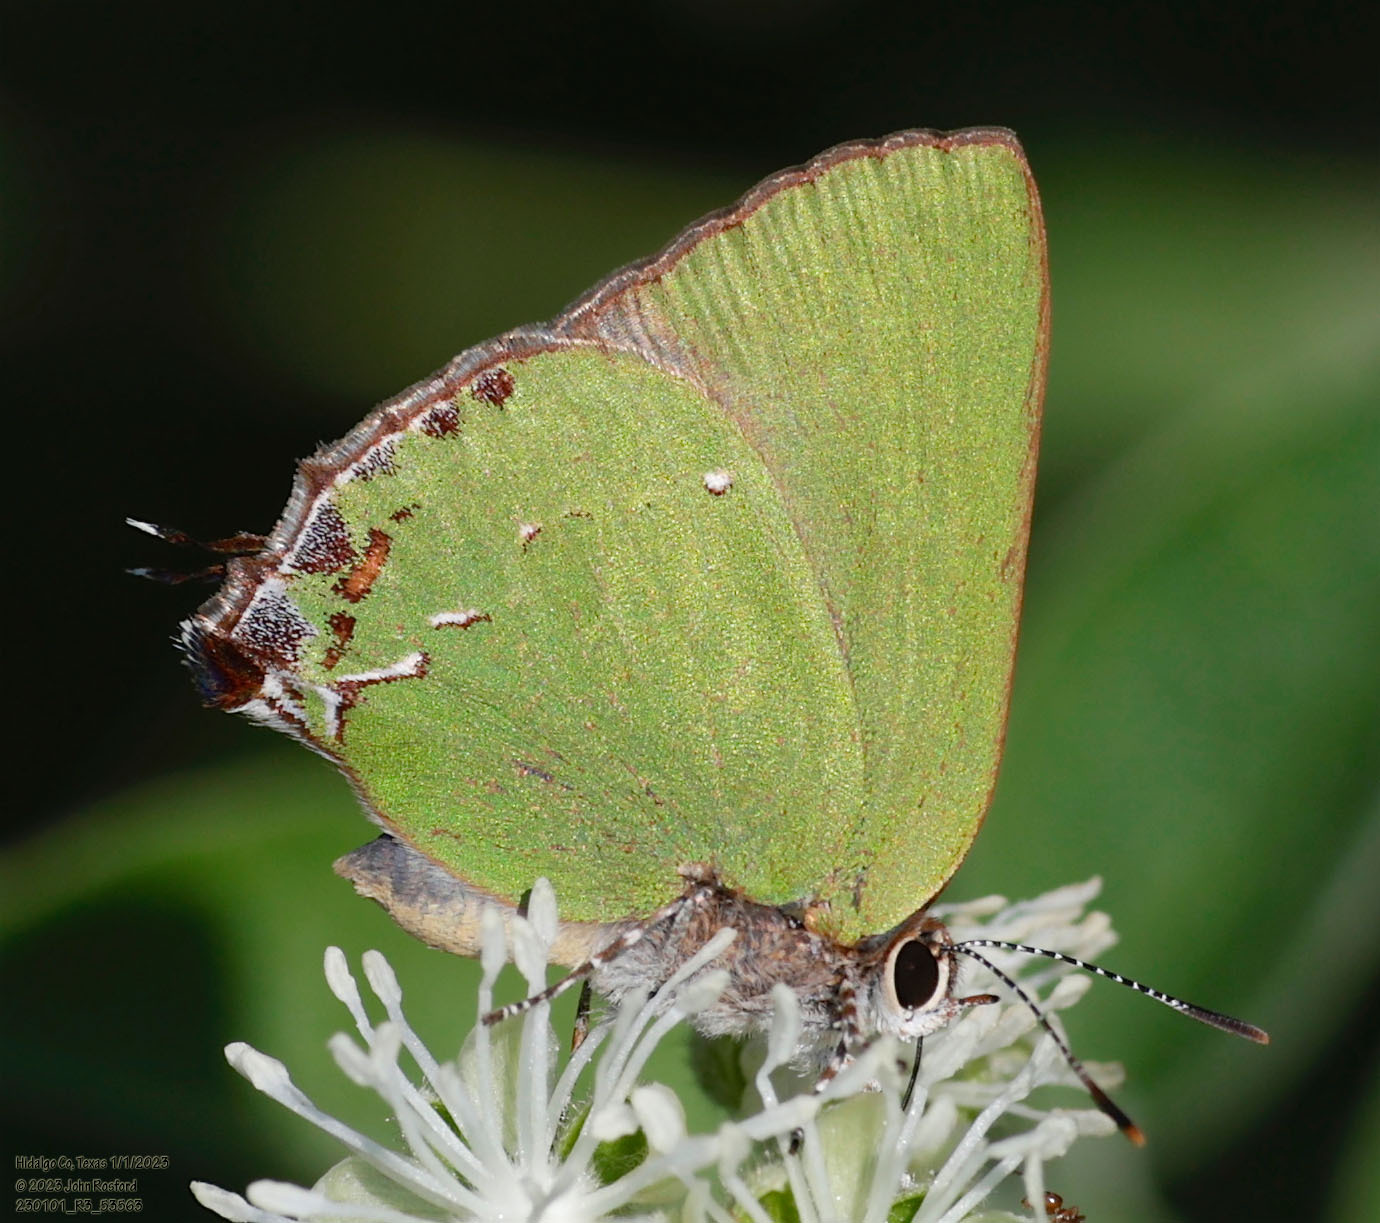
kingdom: Animalia
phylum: Arthropoda
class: Insecta
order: Lepidoptera
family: Lycaenidae
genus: Cyanophrys
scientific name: Cyanophrys miserabilis
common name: Clench's greenstreak
